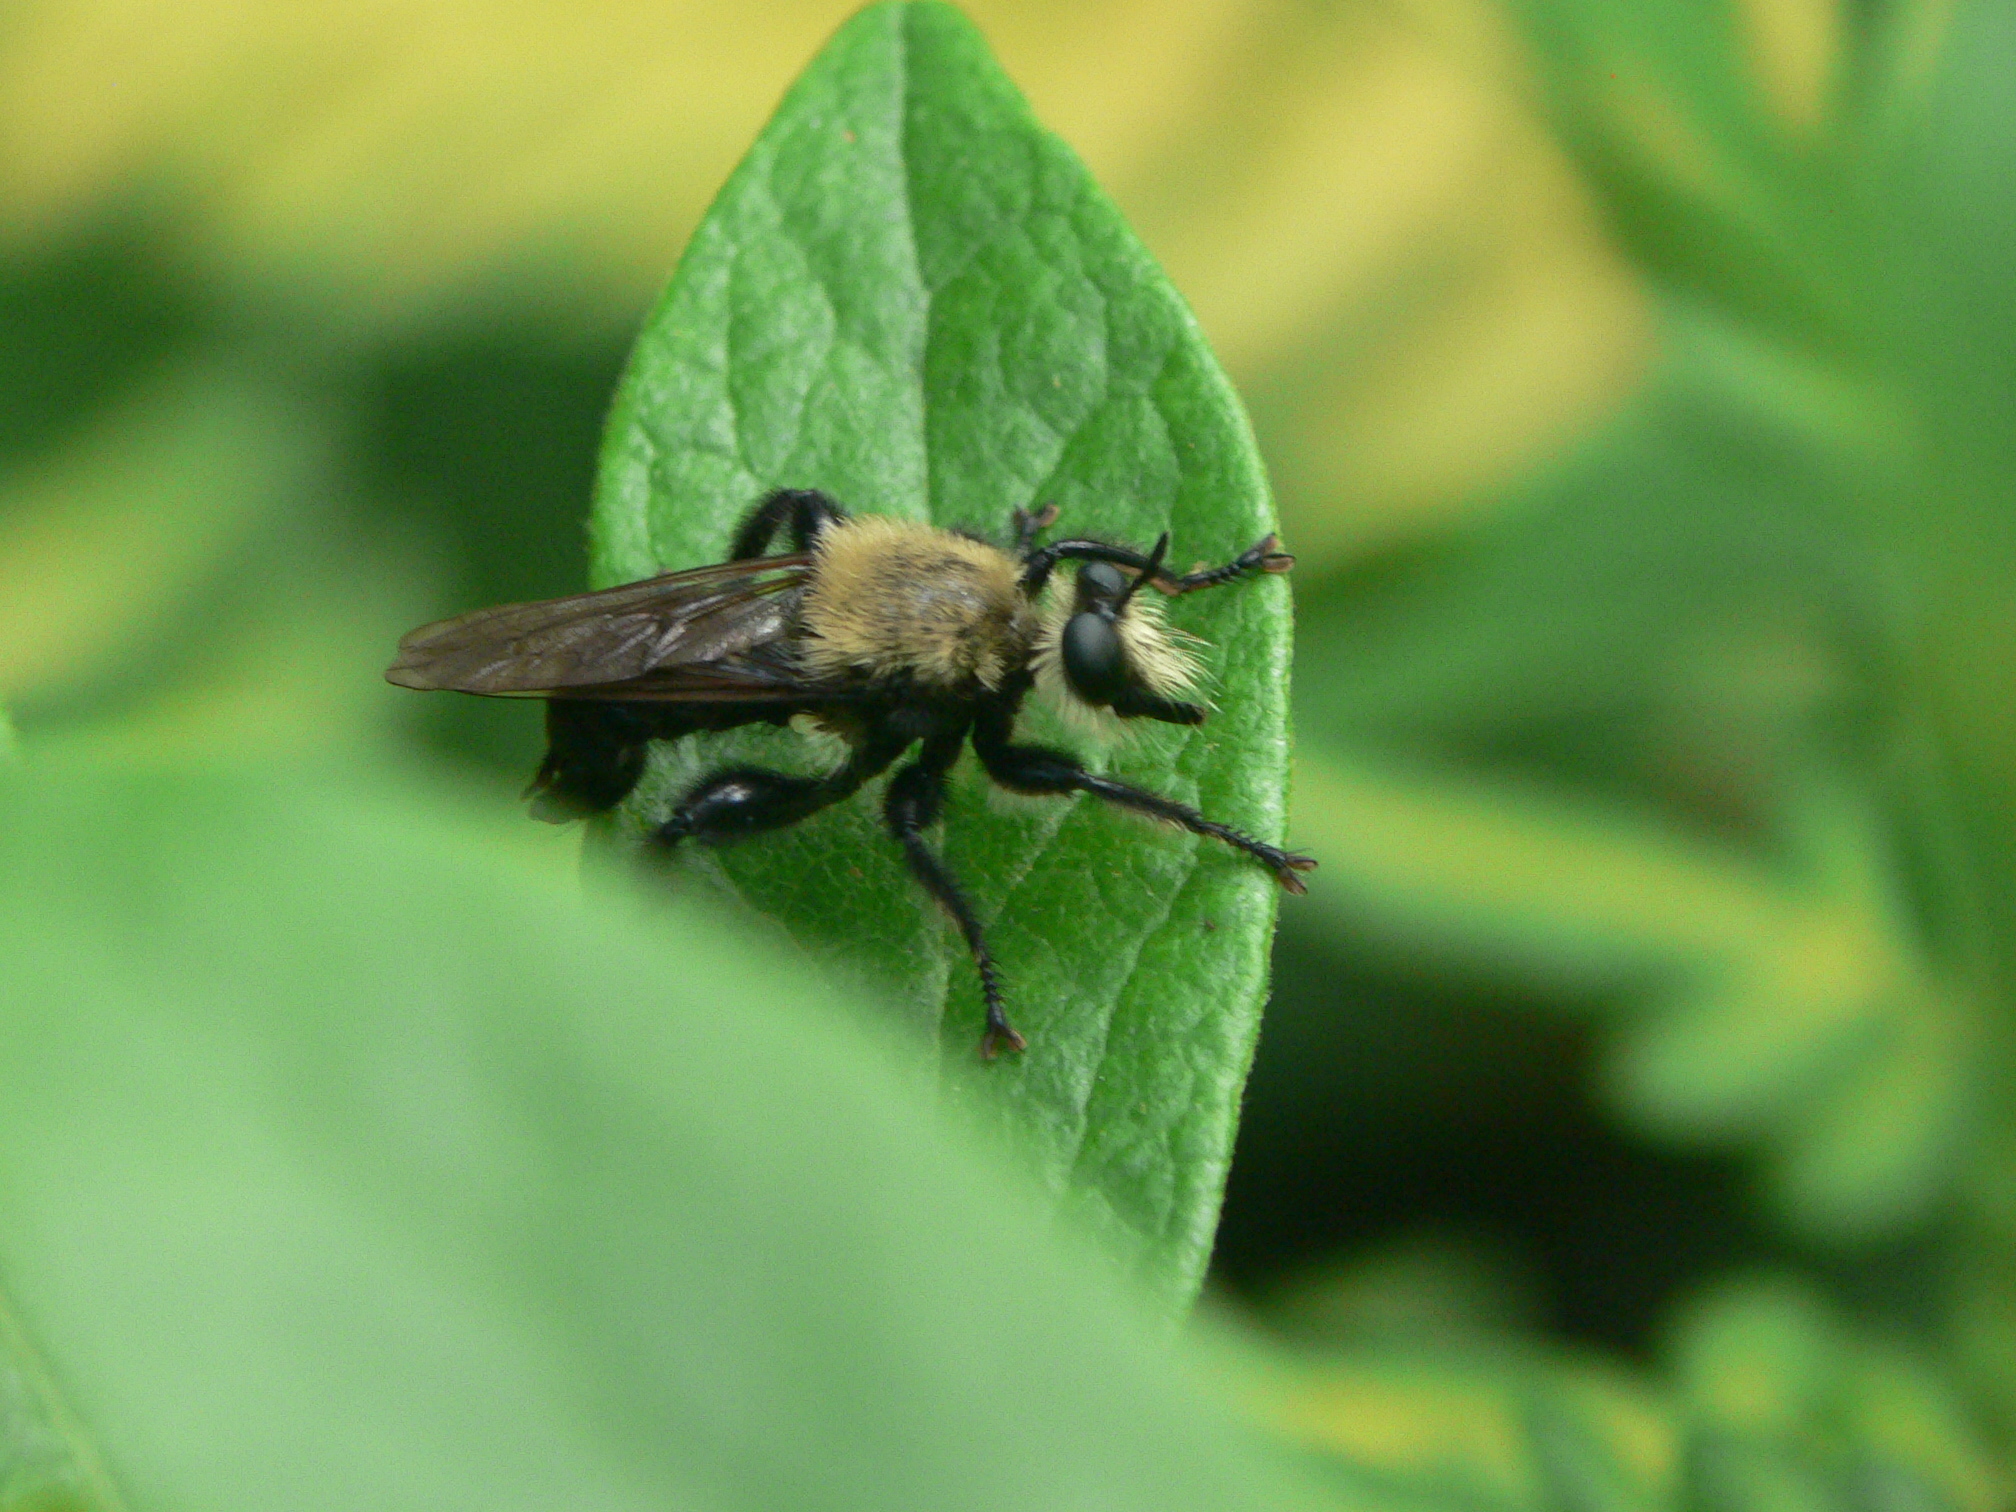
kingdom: Animalia
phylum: Arthropoda
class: Insecta
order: Diptera
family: Asilidae
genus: Laphria
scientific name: Laphria virginica
